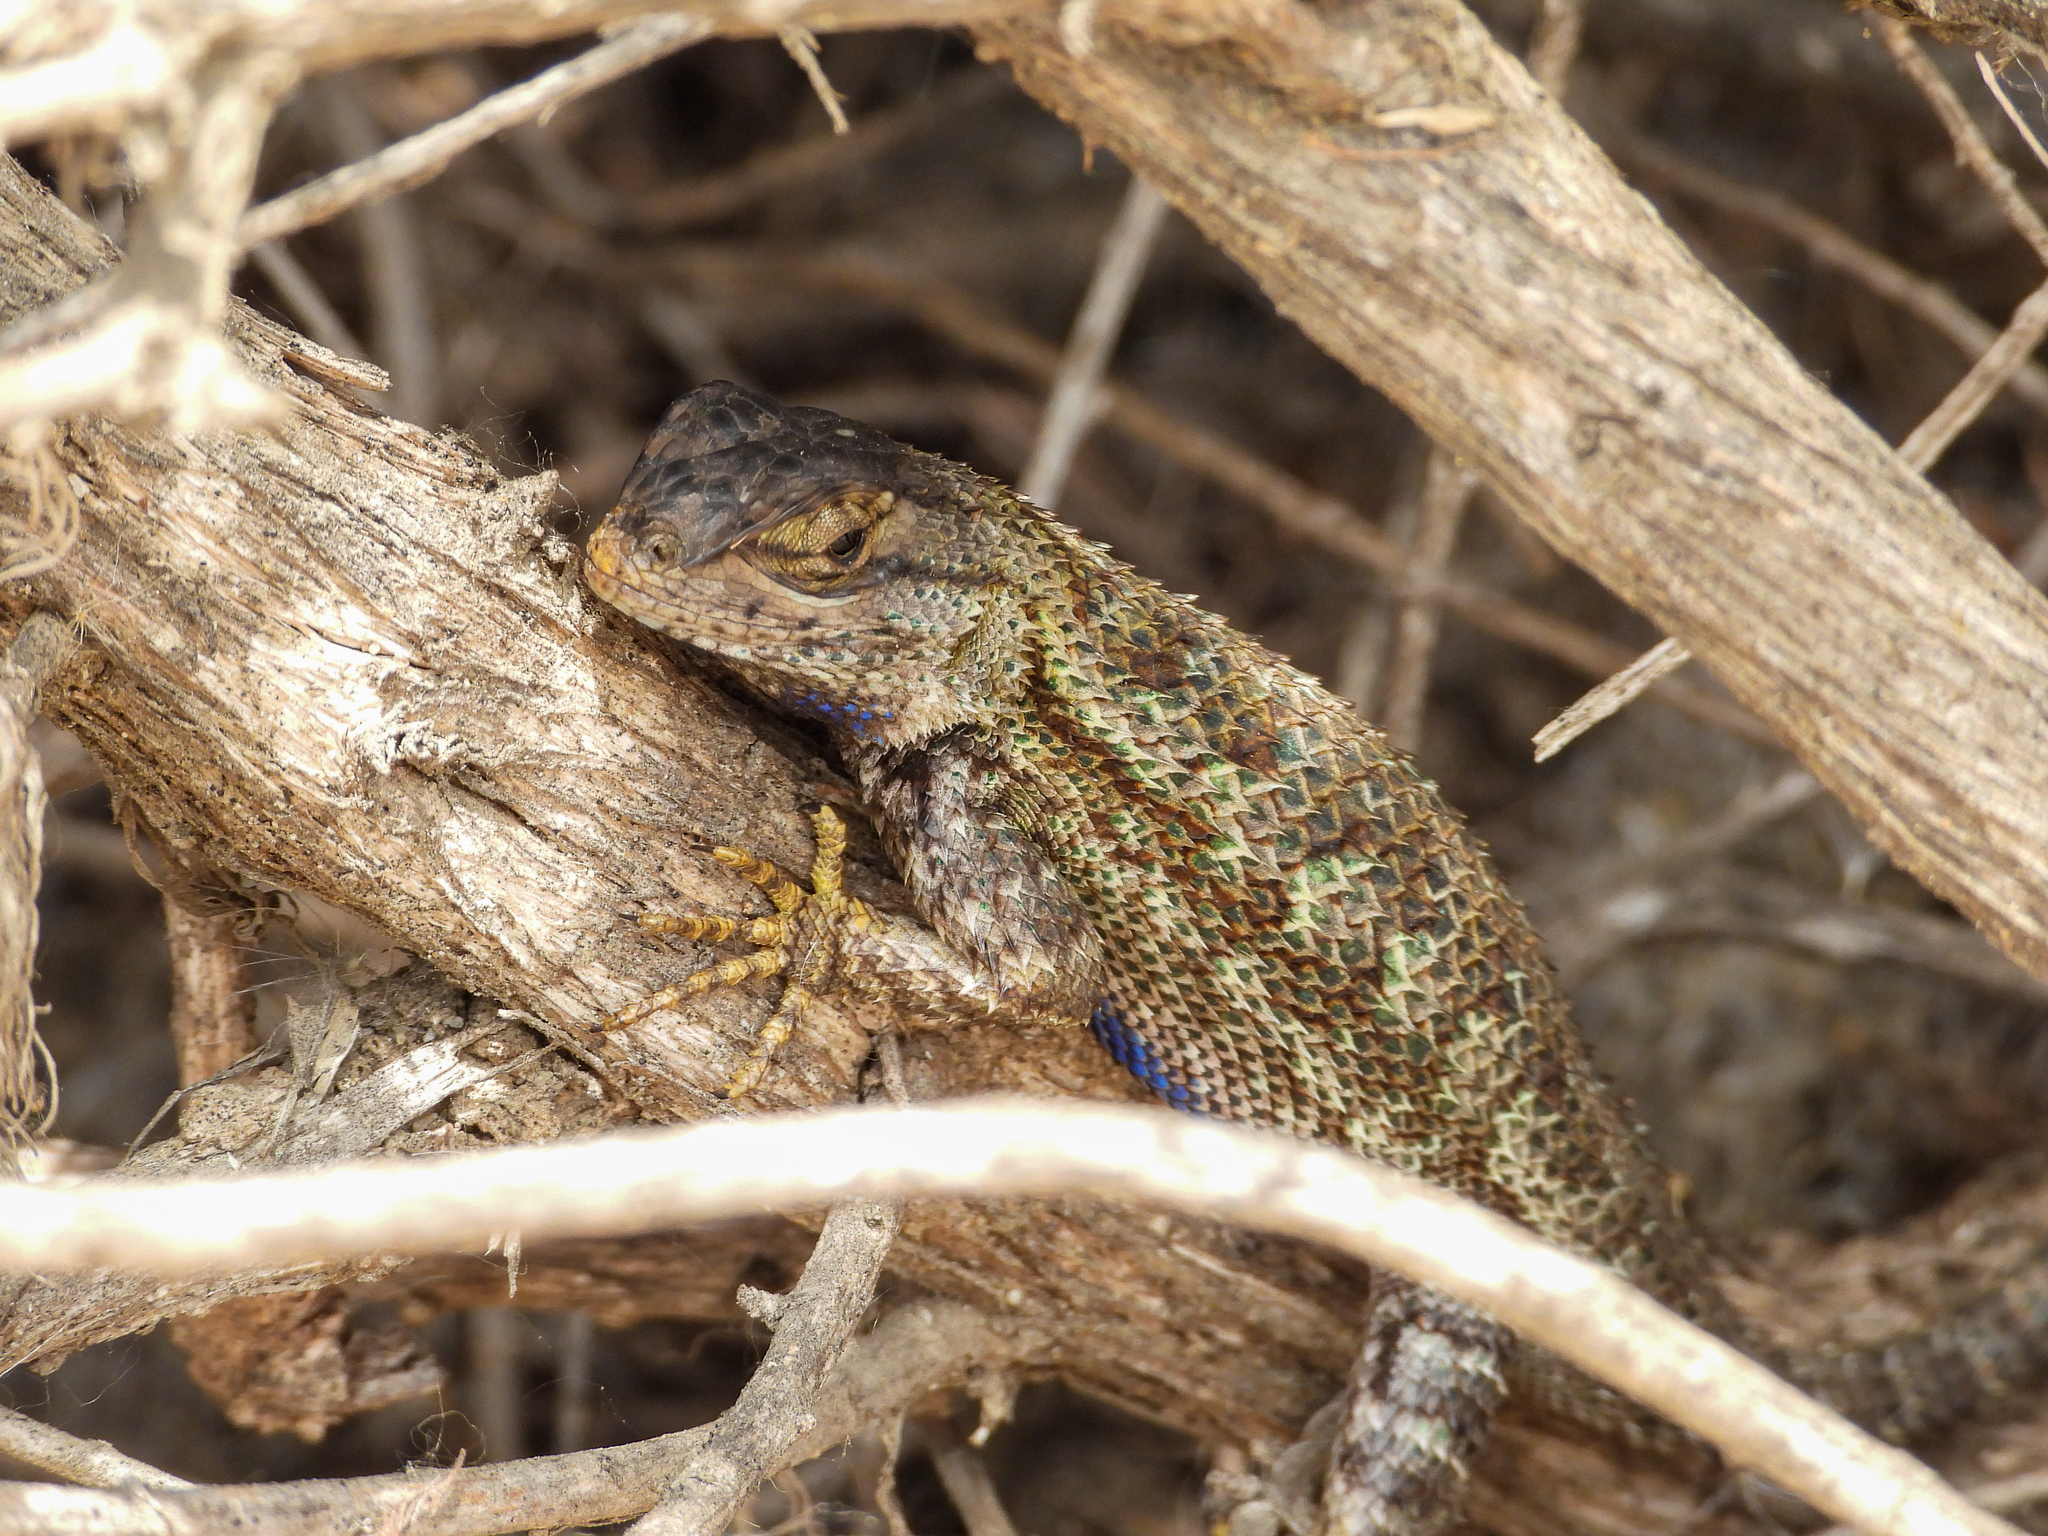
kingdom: Animalia
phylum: Chordata
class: Squamata
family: Phrynosomatidae
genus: Sceloporus
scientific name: Sceloporus occidentalis
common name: Western fence lizard
